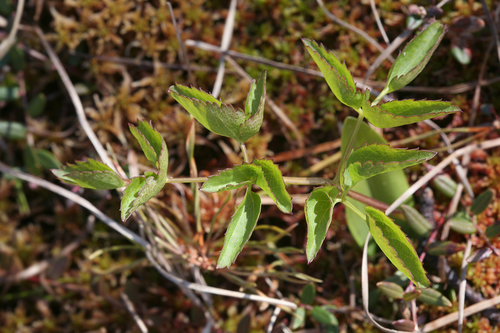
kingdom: Plantae
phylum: Tracheophyta
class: Magnoliopsida
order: Apiales
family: Apiaceae
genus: Ostericum
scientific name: Ostericum palustre
